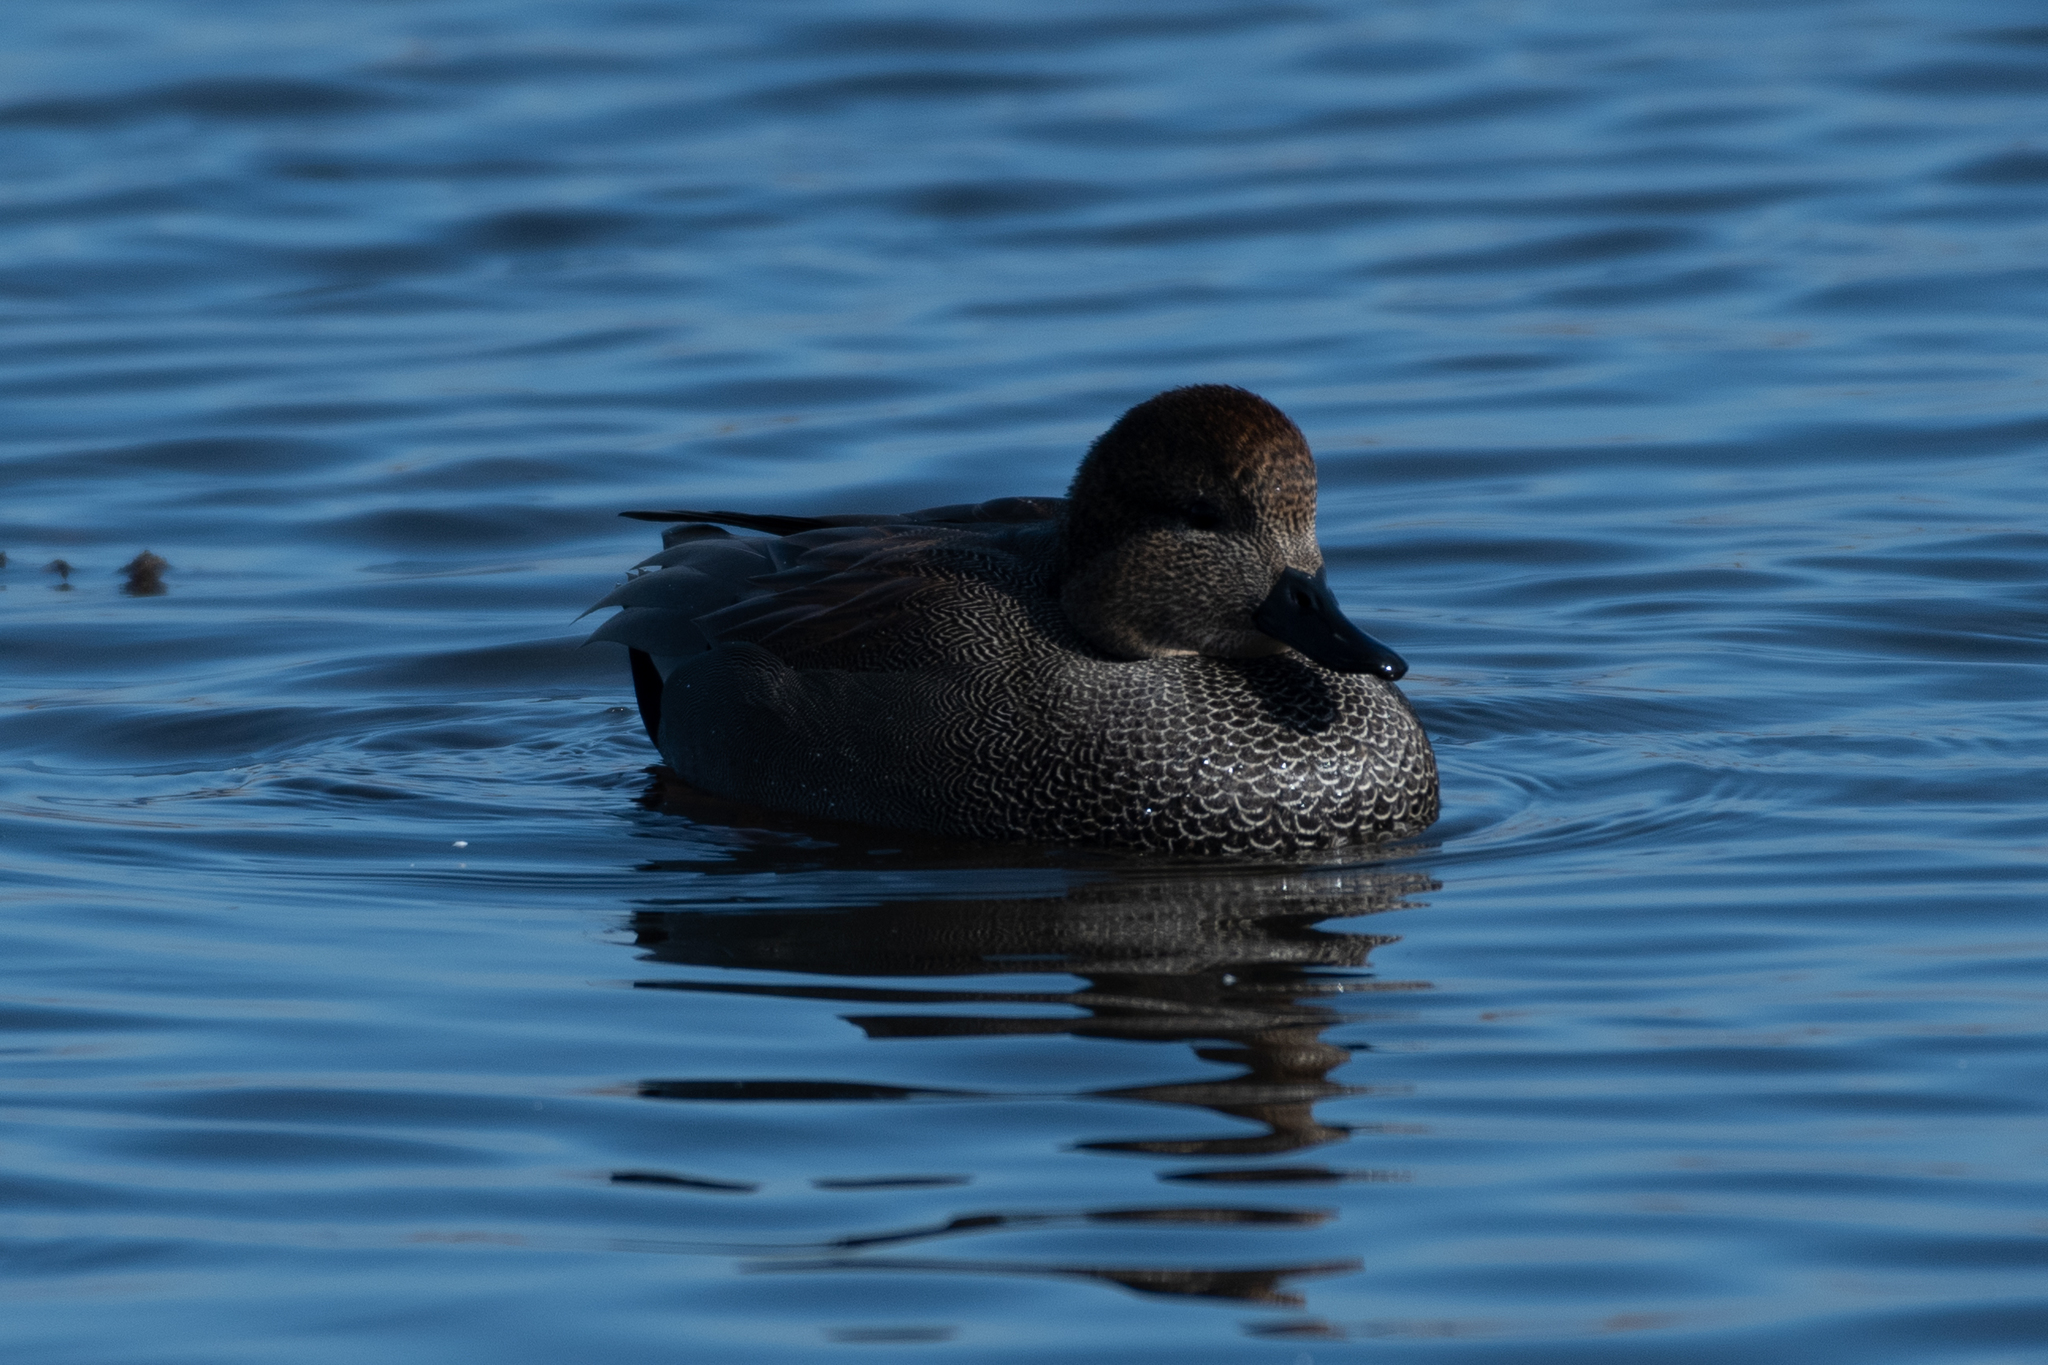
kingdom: Animalia
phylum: Chordata
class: Aves
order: Anseriformes
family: Anatidae
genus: Mareca
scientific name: Mareca strepera
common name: Gadwall
